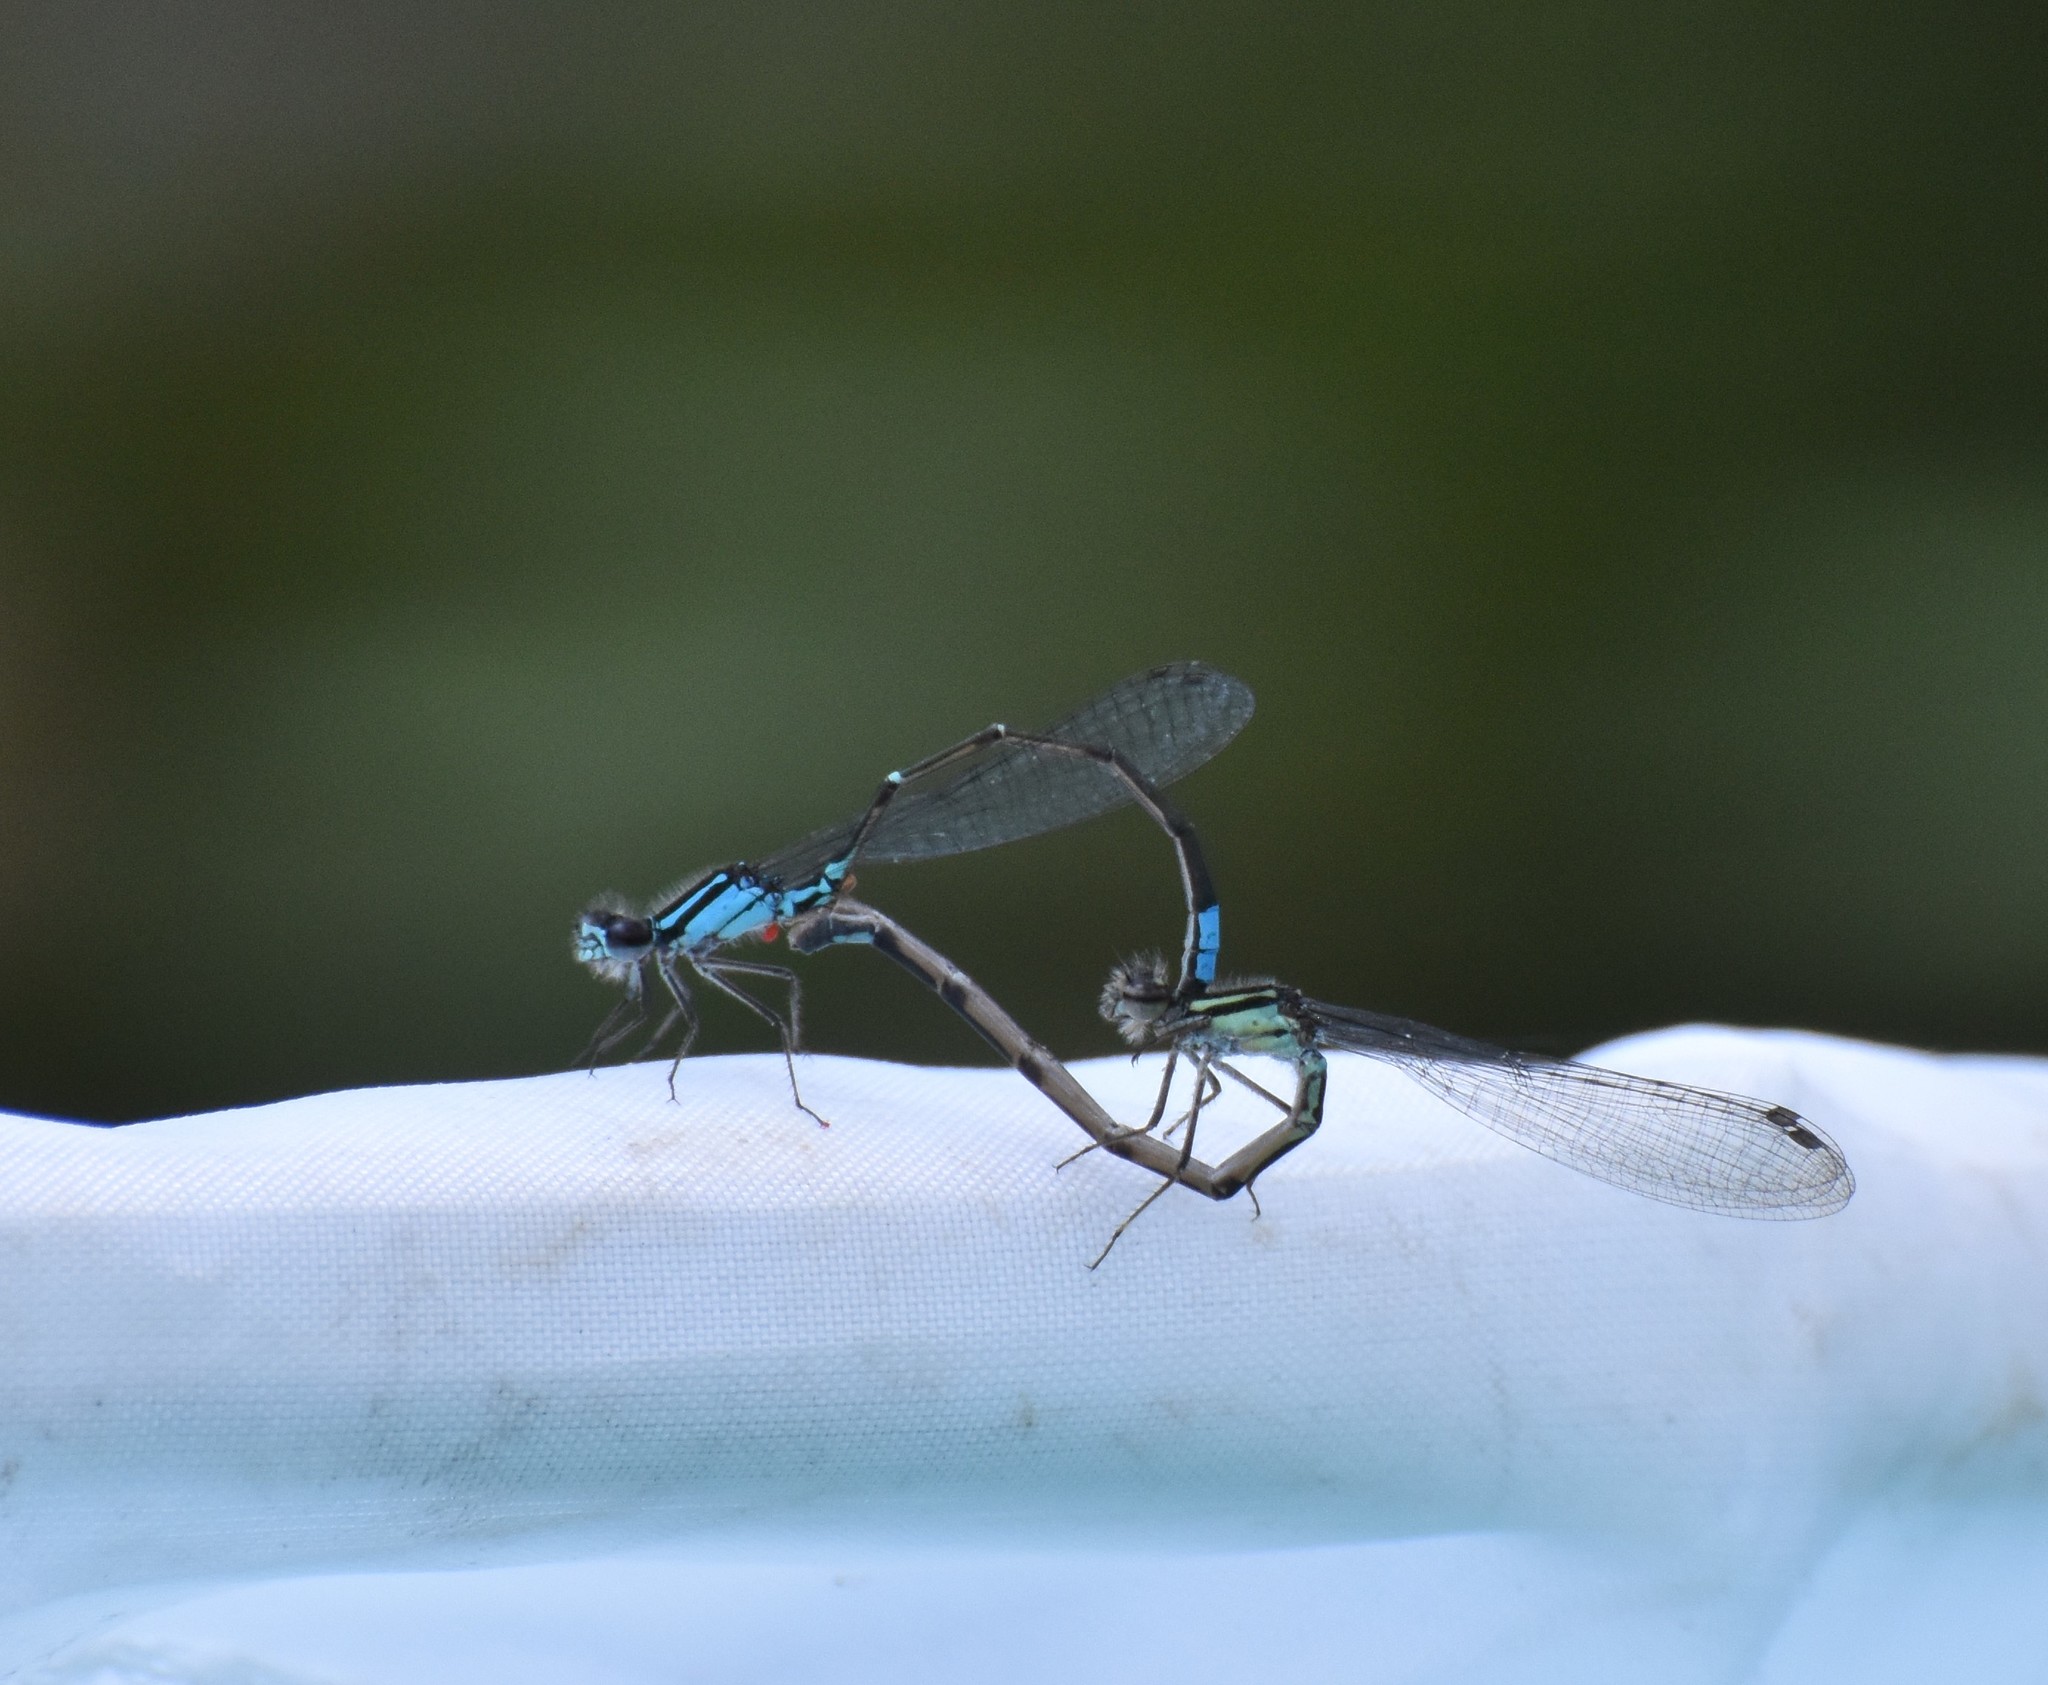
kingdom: Animalia
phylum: Arthropoda
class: Insecta
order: Odonata
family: Coenagrionidae
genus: Enallagma
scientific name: Enallagma geminatum
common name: Skimming bluet
